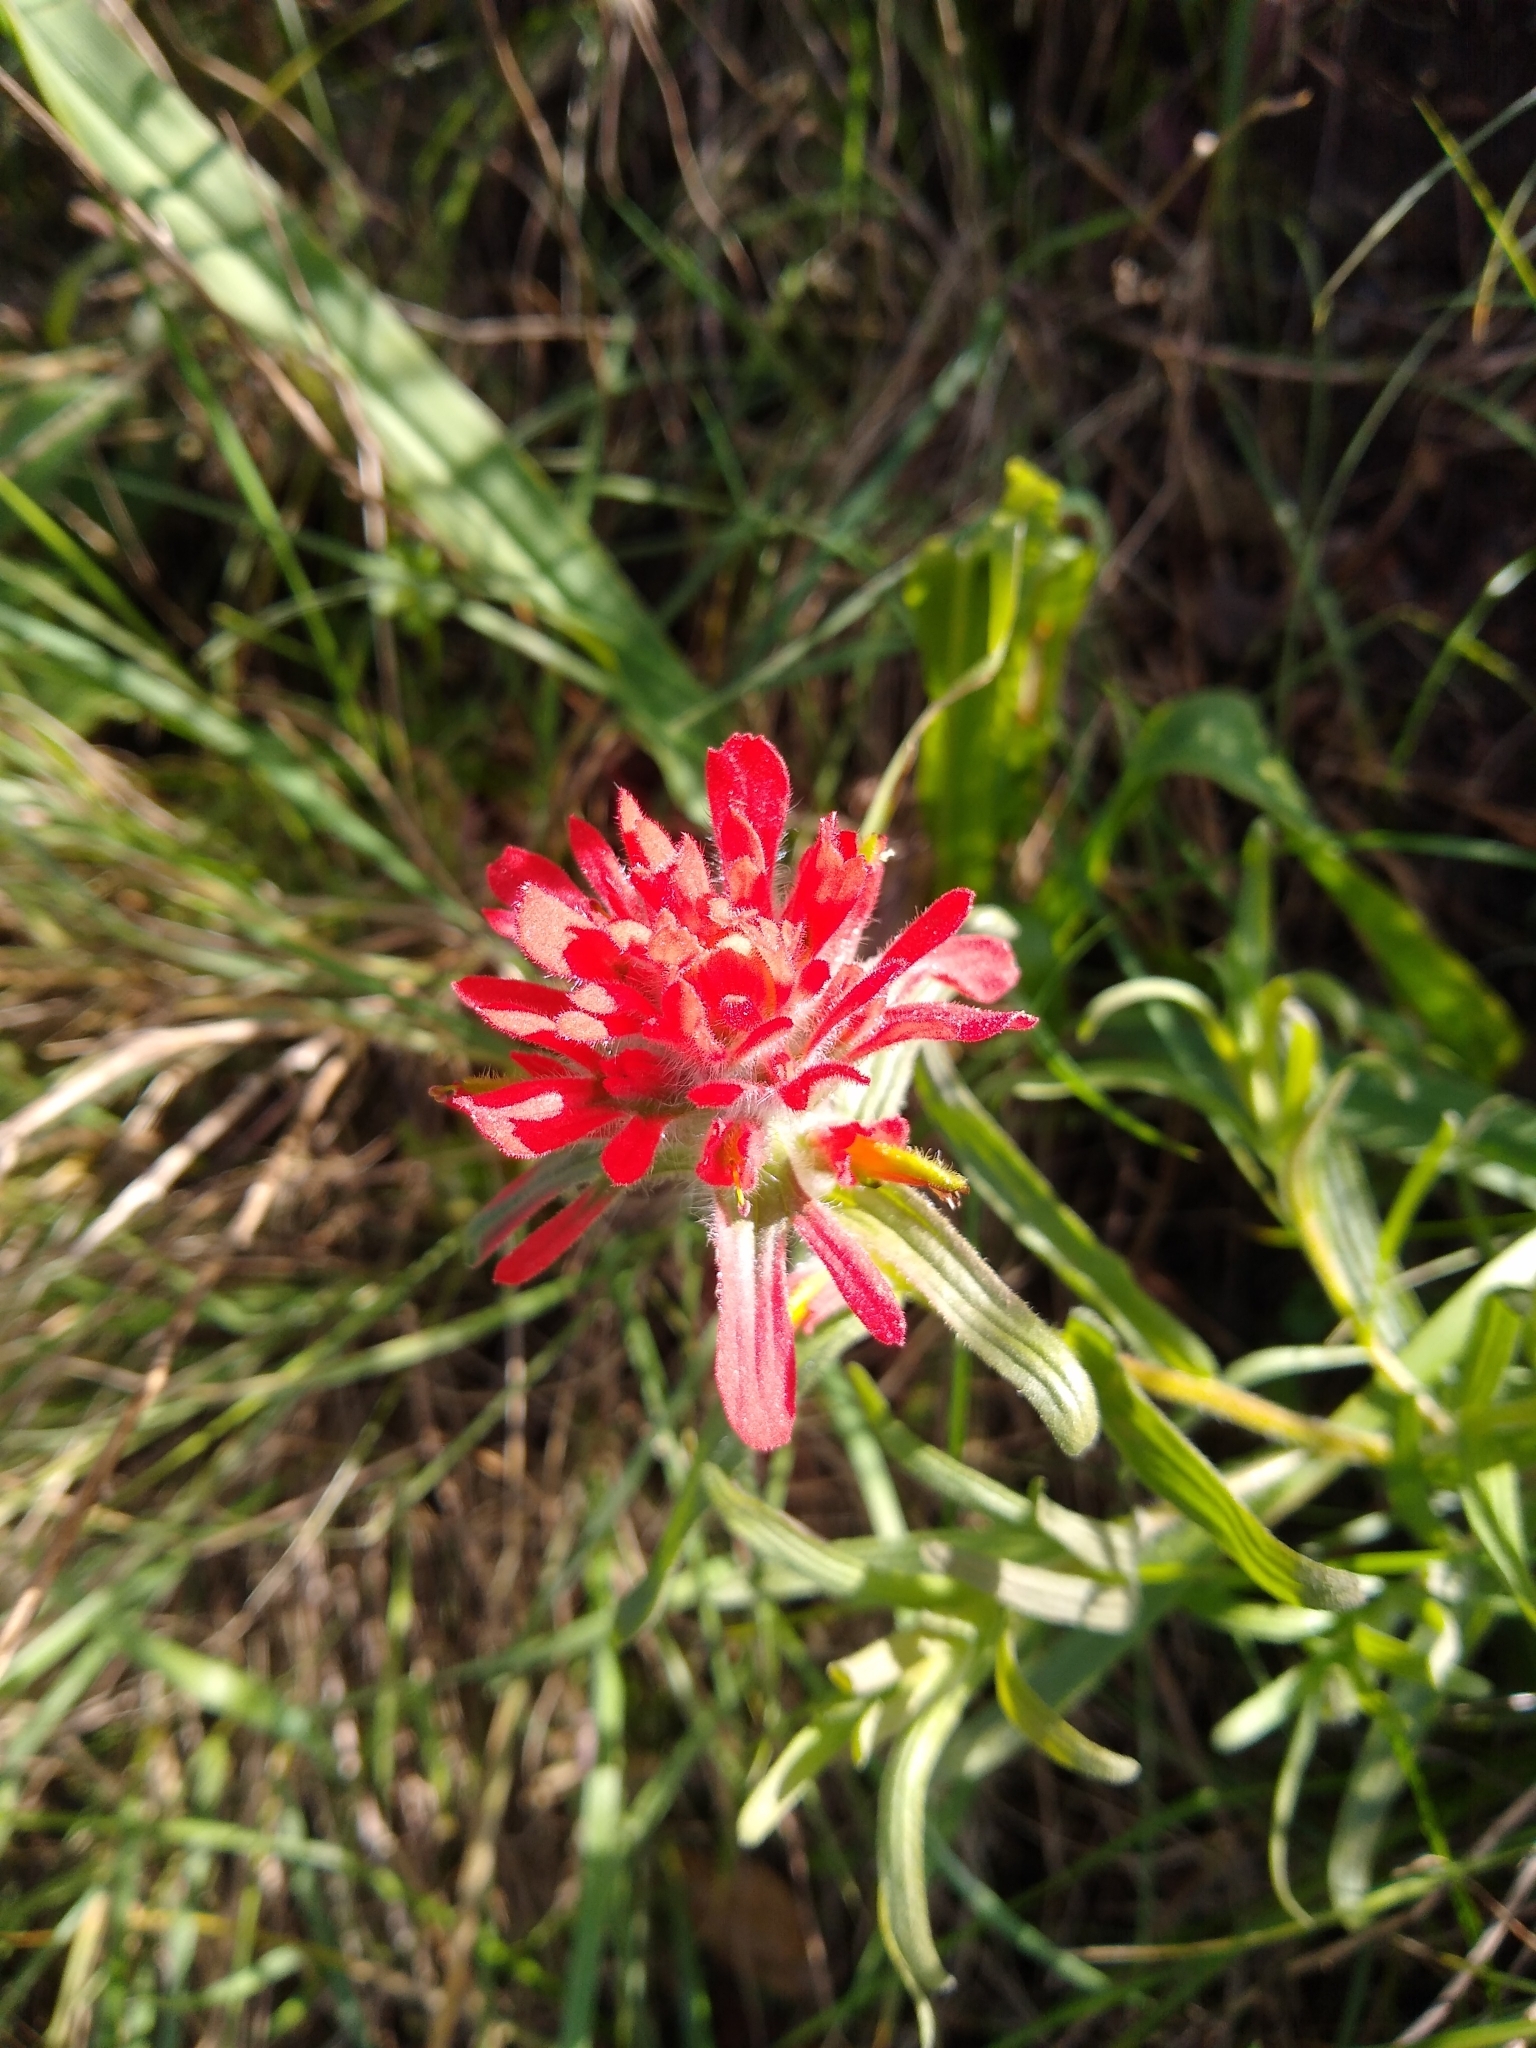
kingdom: Plantae
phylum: Tracheophyta
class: Magnoliopsida
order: Lamiales
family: Orobanchaceae
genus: Castilleja
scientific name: Castilleja affinis
